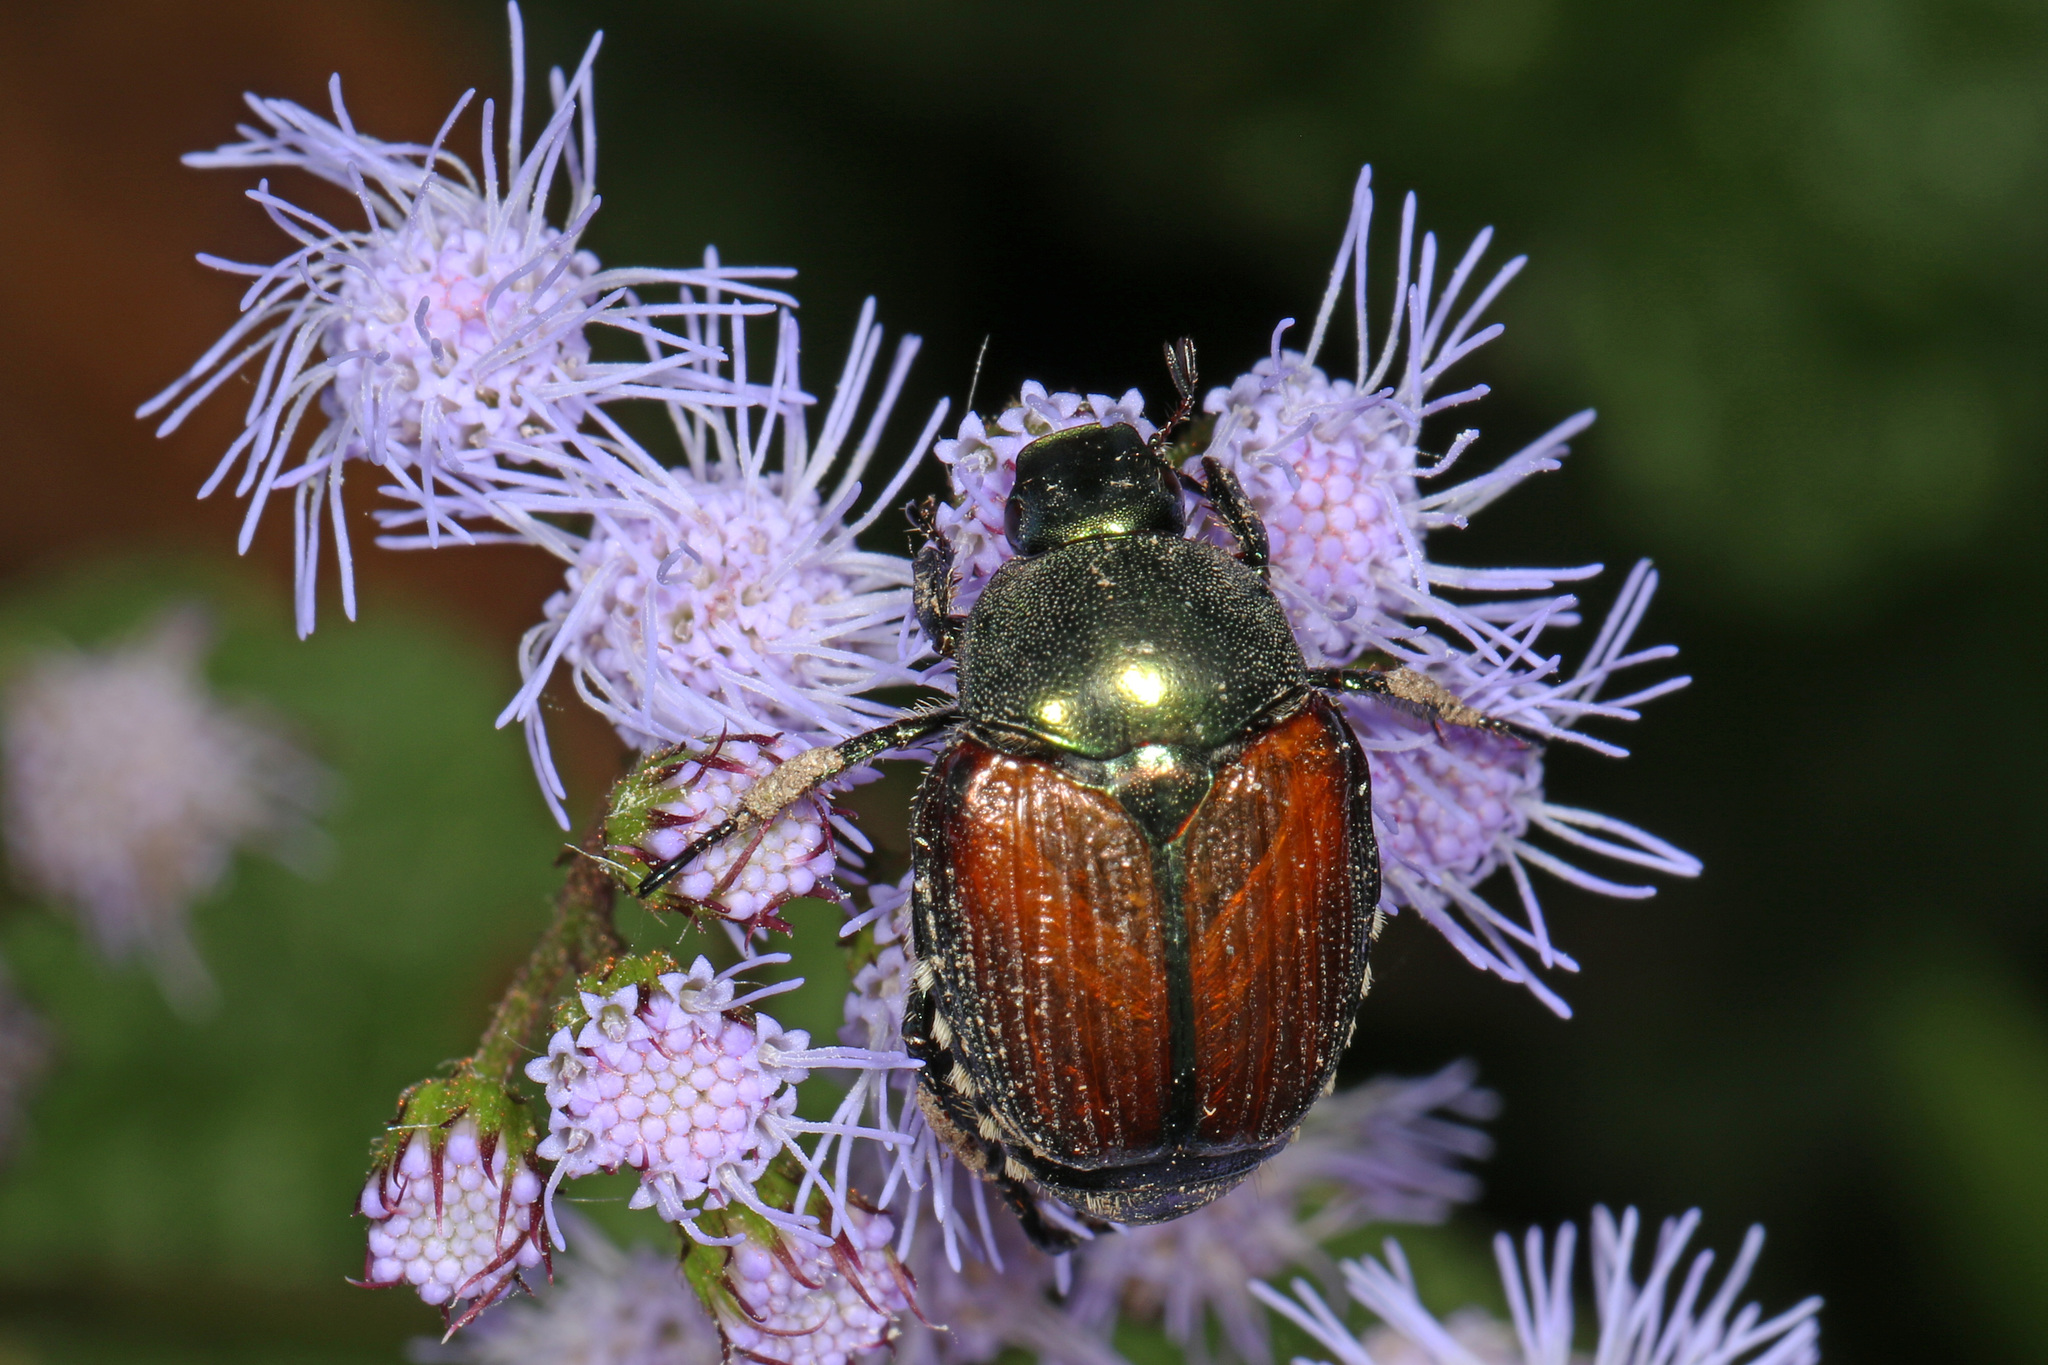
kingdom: Animalia
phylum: Arthropoda
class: Insecta
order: Coleoptera
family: Scarabaeidae
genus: Popillia
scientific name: Popillia japonica
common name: Japanese beetle
